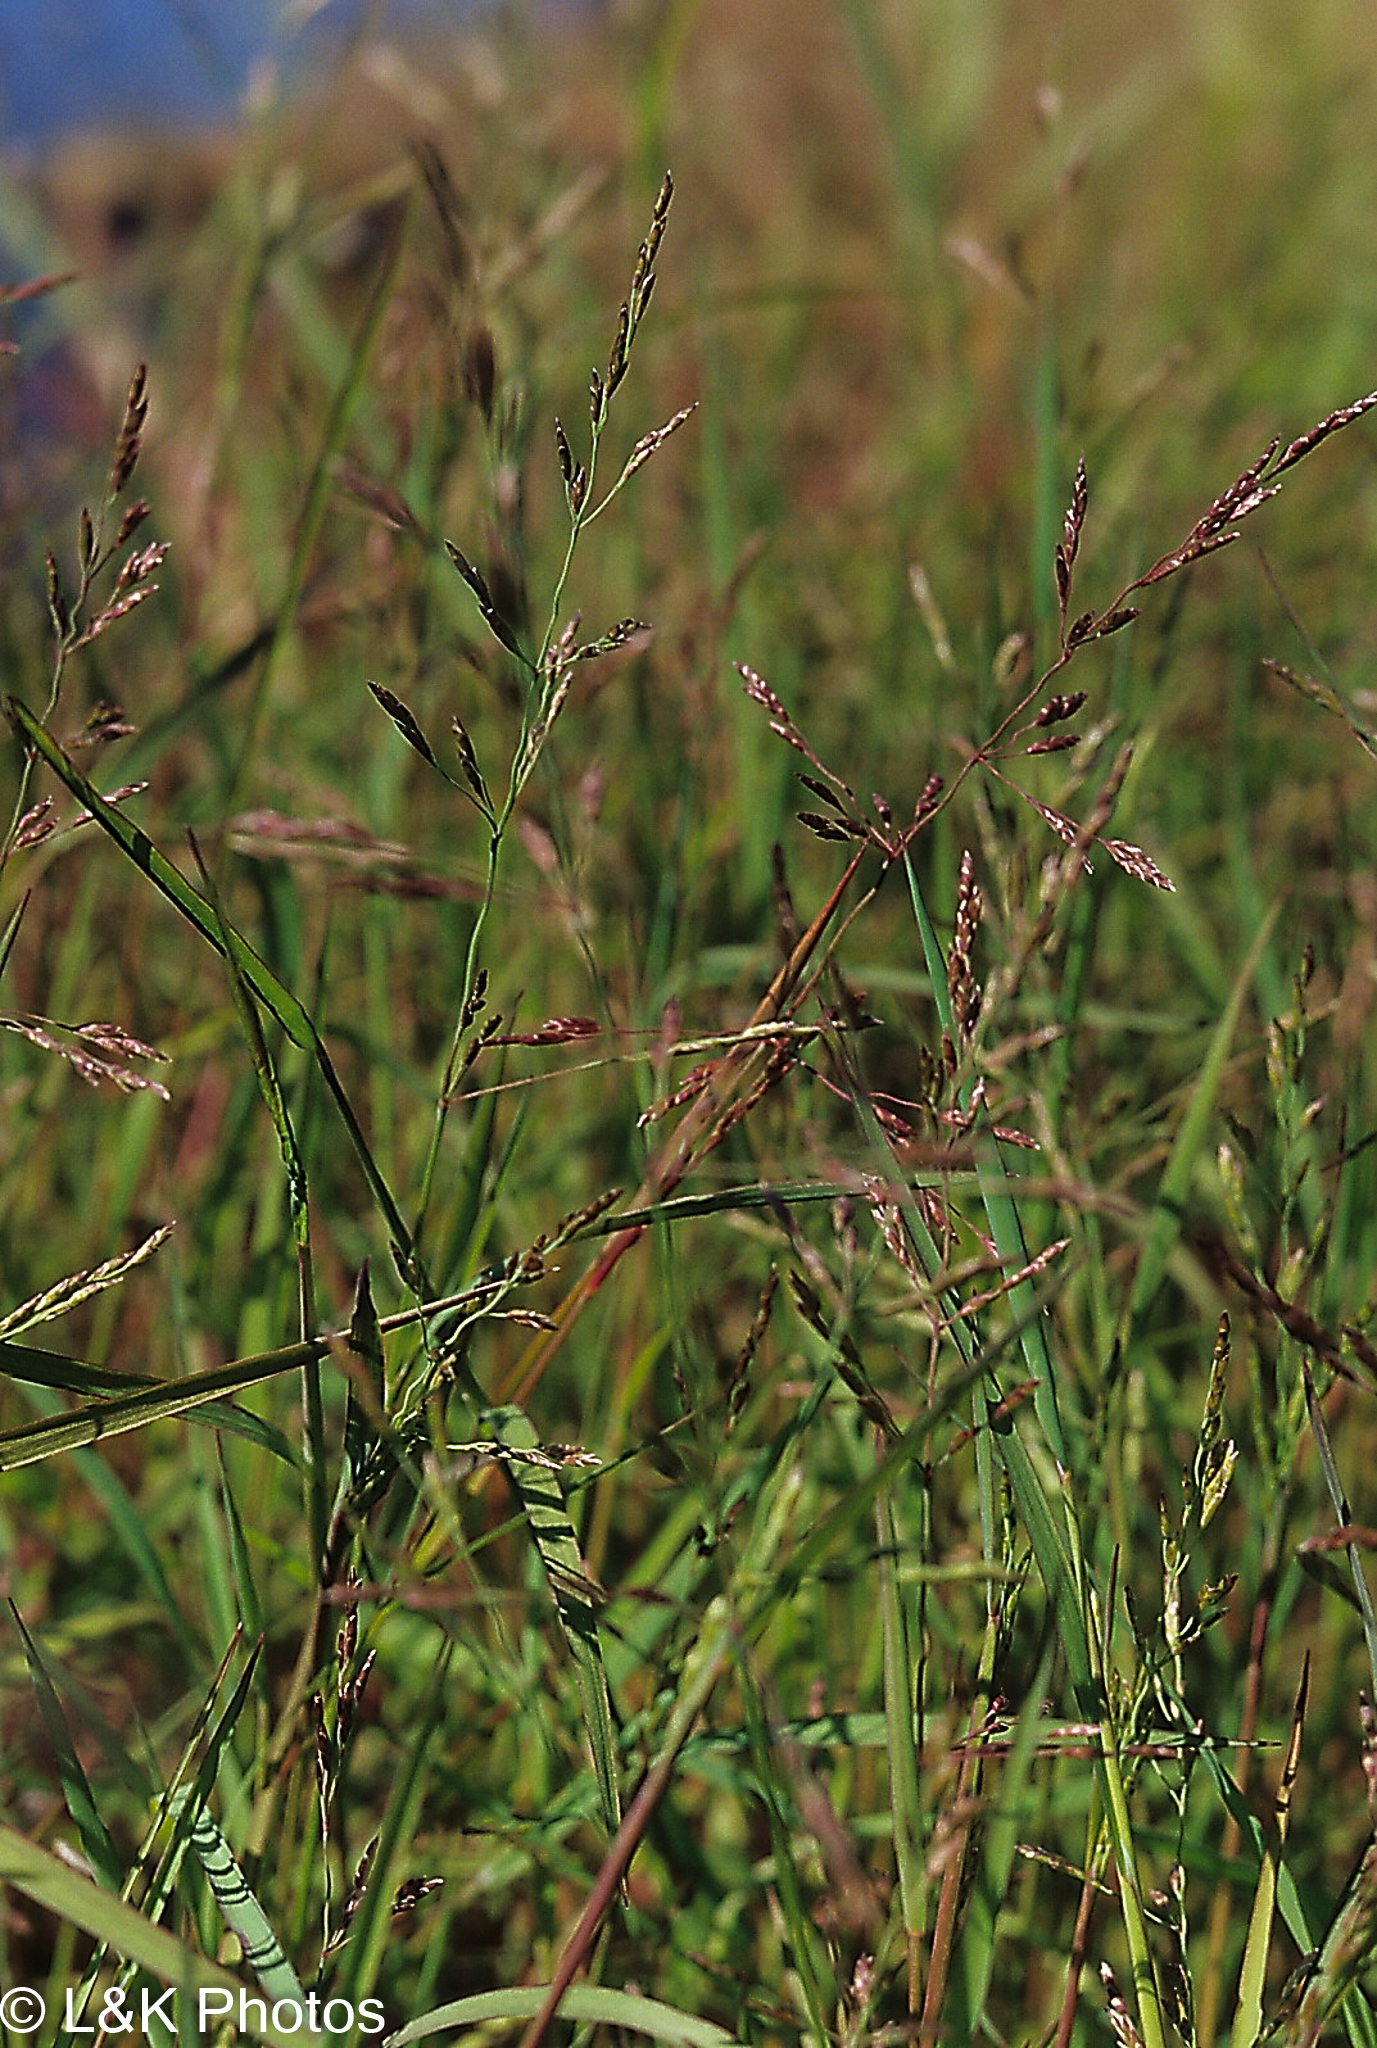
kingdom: Plantae
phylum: Tracheophyta
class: Liliopsida
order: Poales
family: Poaceae
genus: Glyceria
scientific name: Glyceria striata
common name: Fowl manna grass
